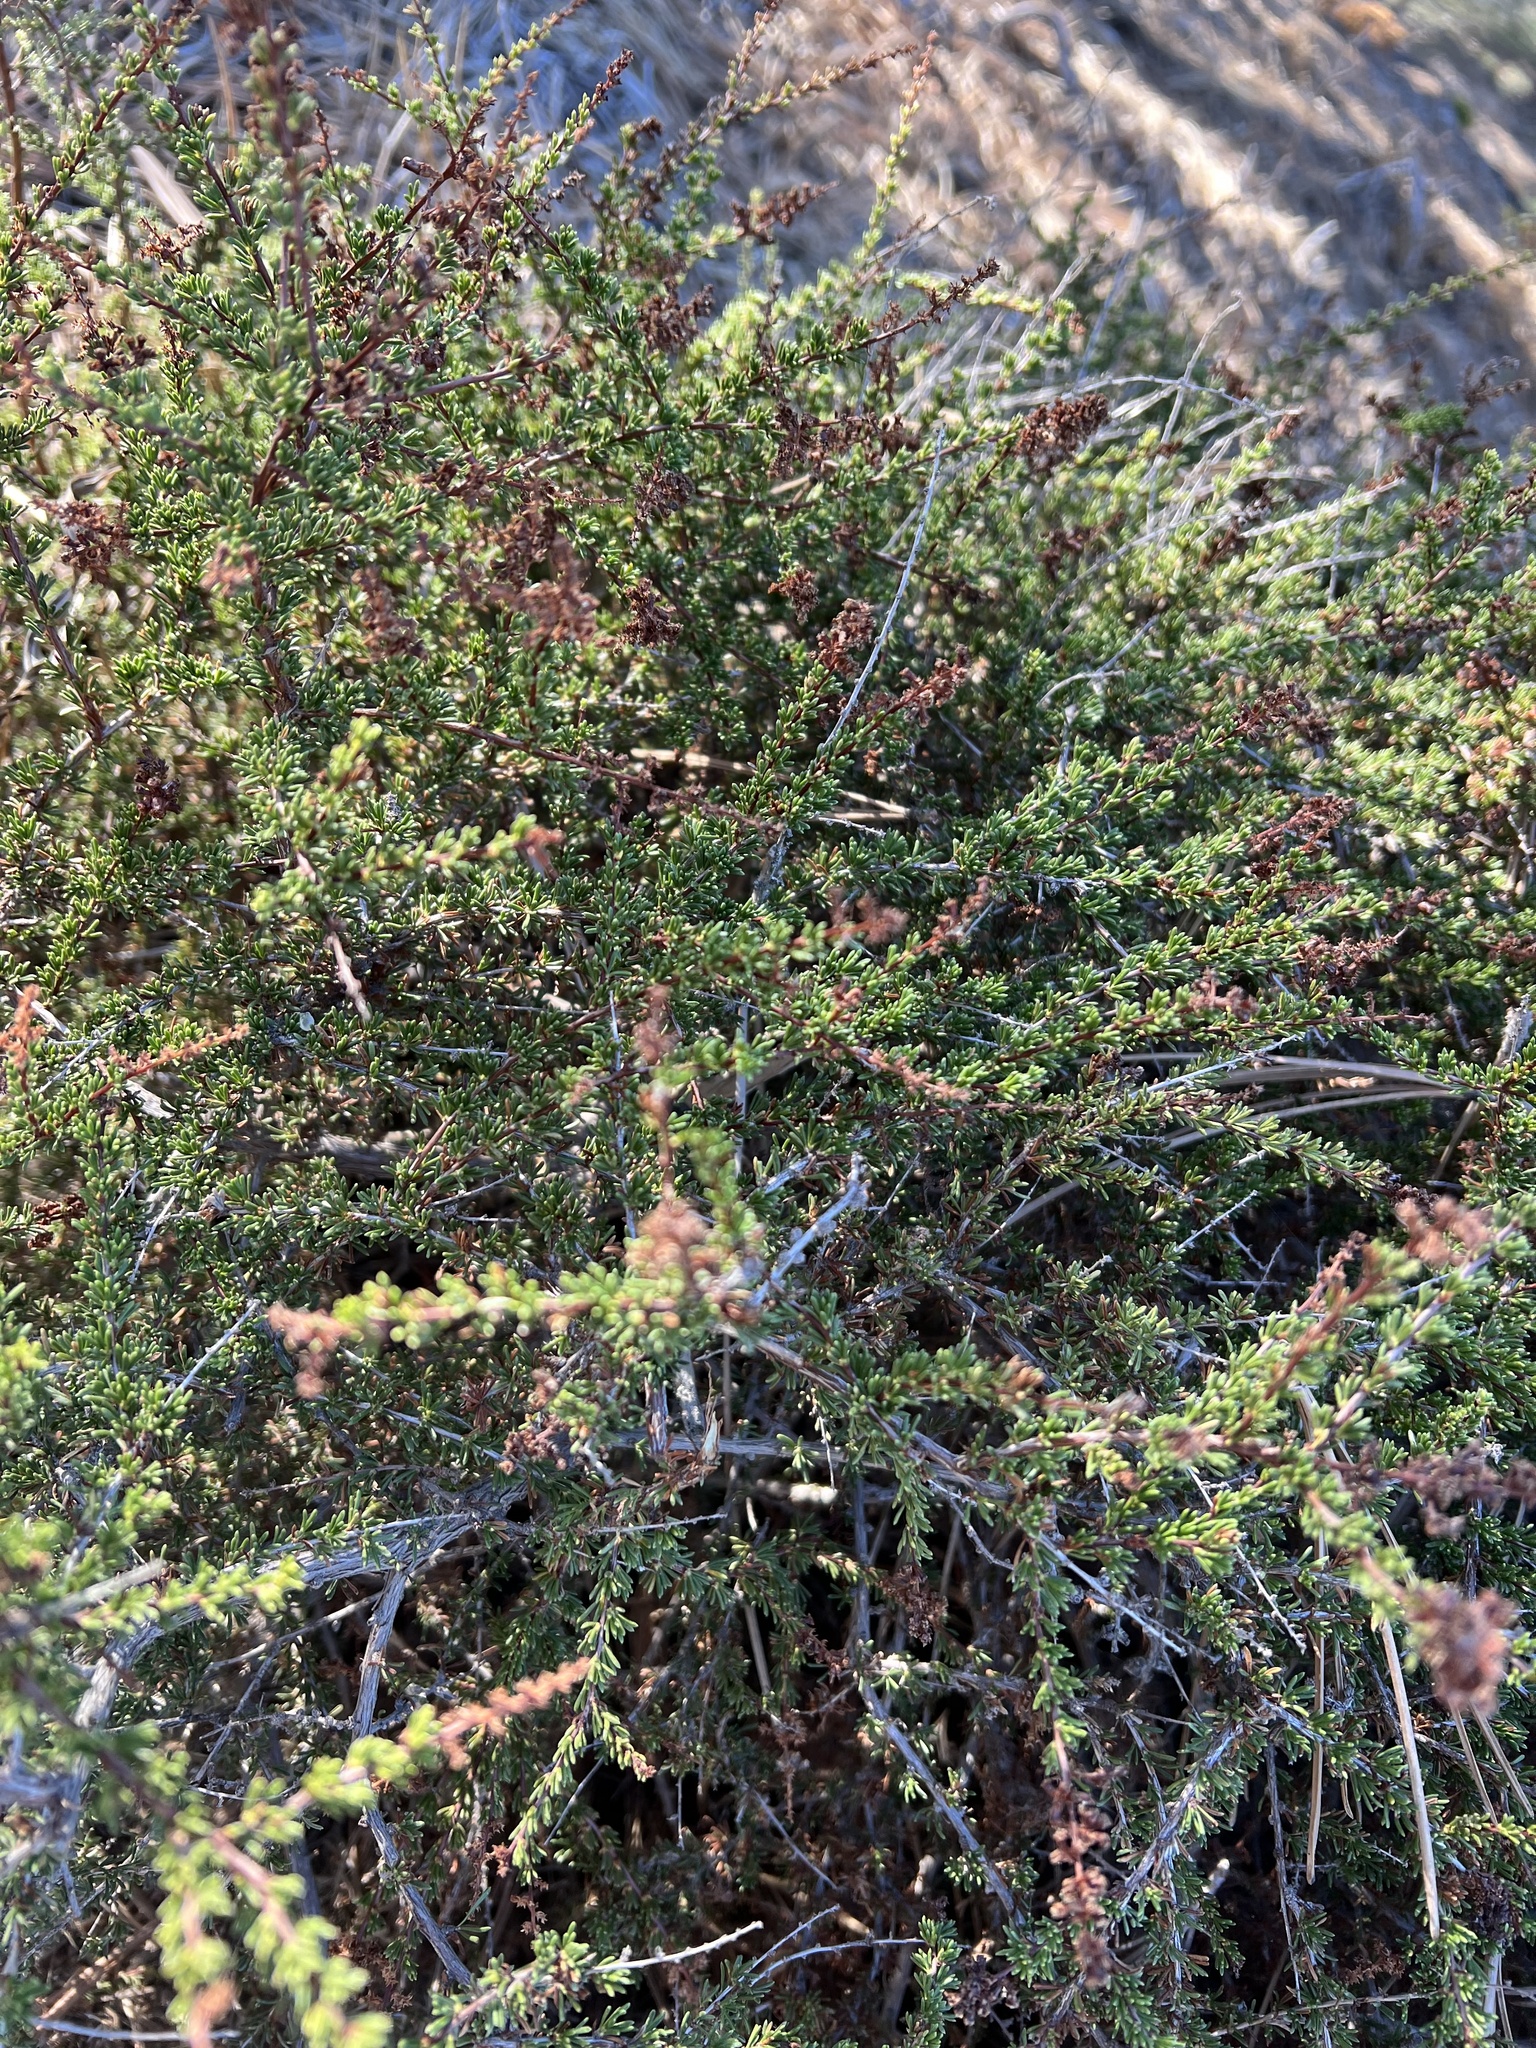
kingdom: Plantae
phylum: Tracheophyta
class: Magnoliopsida
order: Rosales
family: Rosaceae
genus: Adenostoma
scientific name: Adenostoma fasciculatum
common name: Chamise
